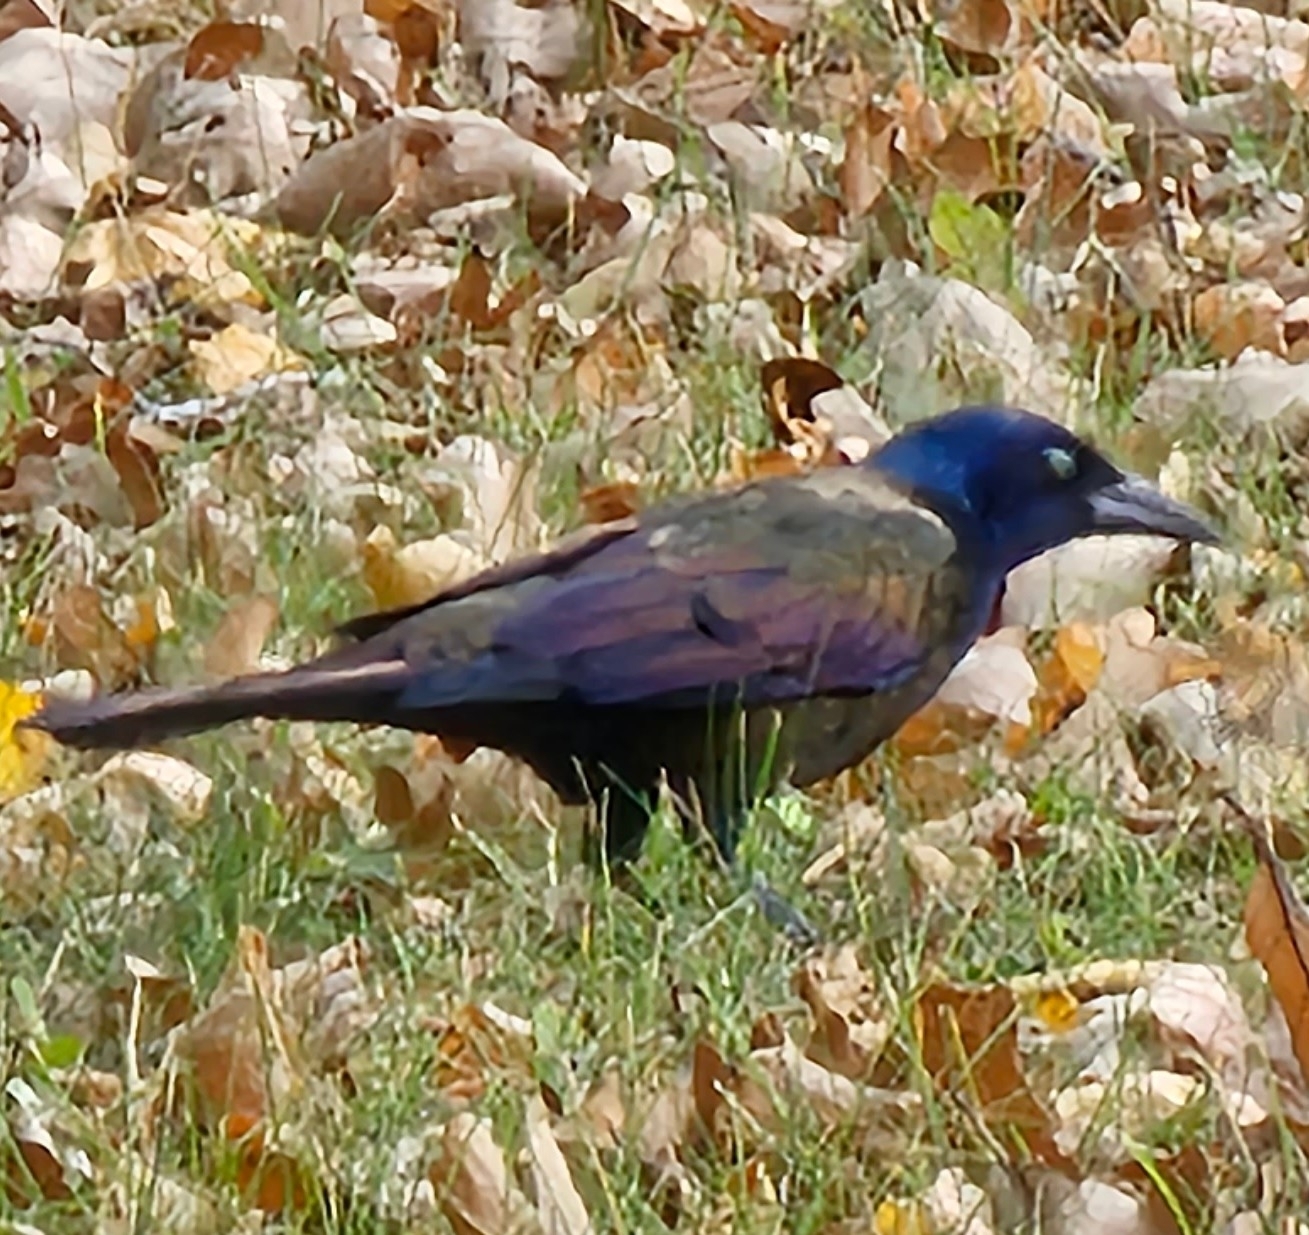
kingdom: Animalia
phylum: Chordata
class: Aves
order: Passeriformes
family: Icteridae
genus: Quiscalus
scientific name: Quiscalus quiscula
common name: Common grackle
